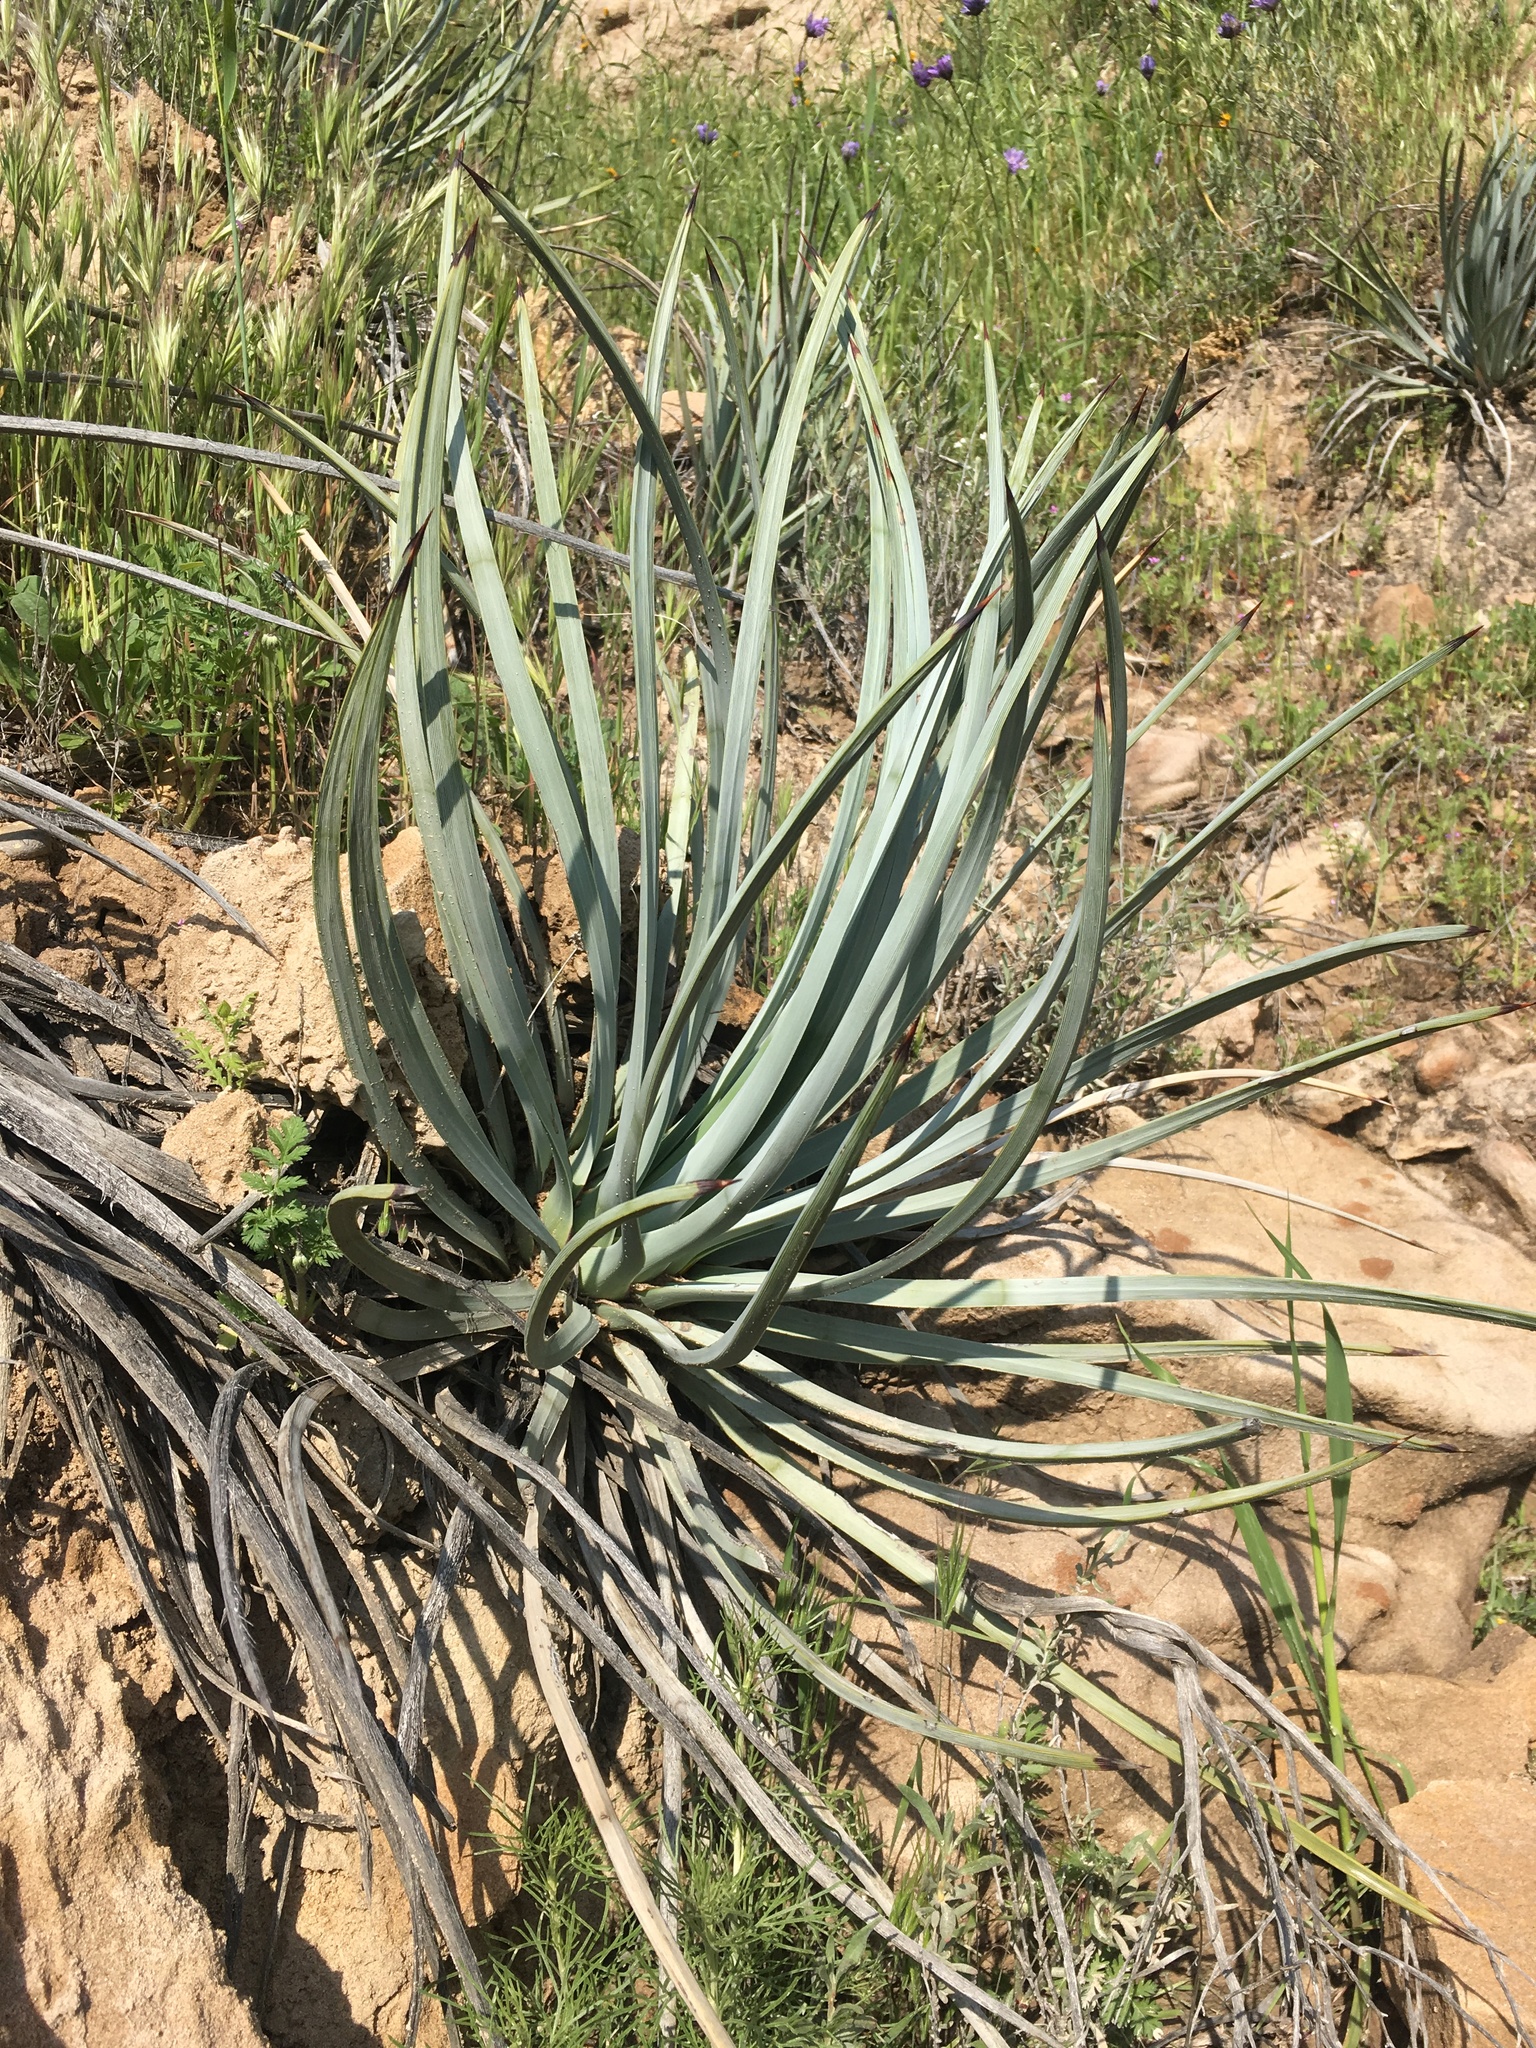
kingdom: Plantae
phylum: Tracheophyta
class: Liliopsida
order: Asparagales
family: Asparagaceae
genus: Hesperoyucca
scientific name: Hesperoyucca whipplei
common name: Our lord's-candle
